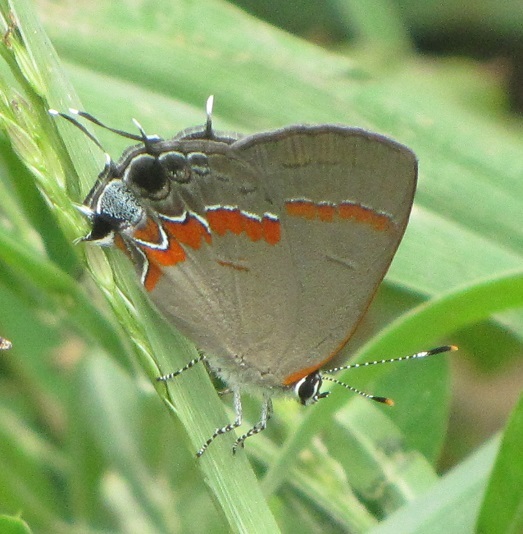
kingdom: Animalia
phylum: Arthropoda
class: Insecta
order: Lepidoptera
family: Lycaenidae
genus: Calycopis
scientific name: Calycopis cecrops
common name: Red-banded hairstreak
